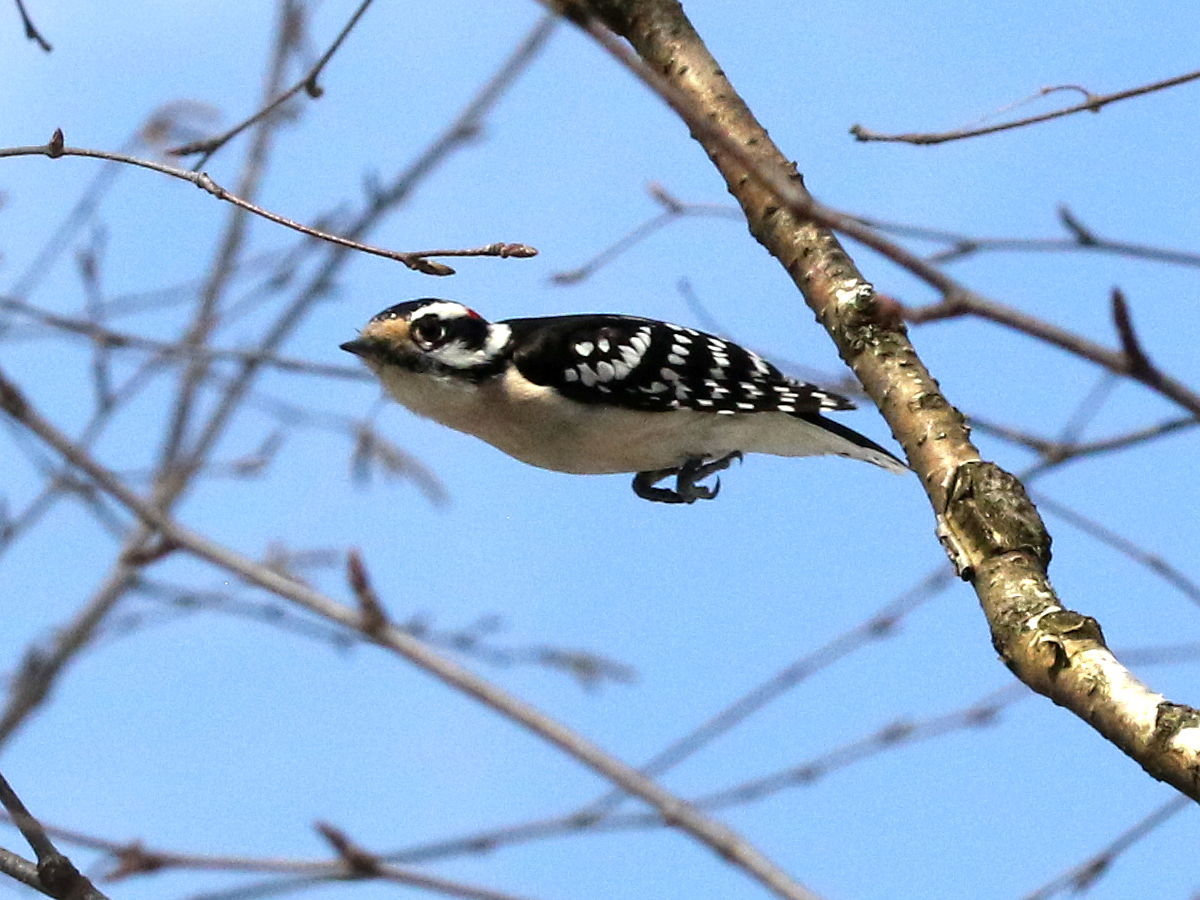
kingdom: Animalia
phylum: Chordata
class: Aves
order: Piciformes
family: Picidae
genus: Dryobates
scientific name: Dryobates pubescens
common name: Downy woodpecker
